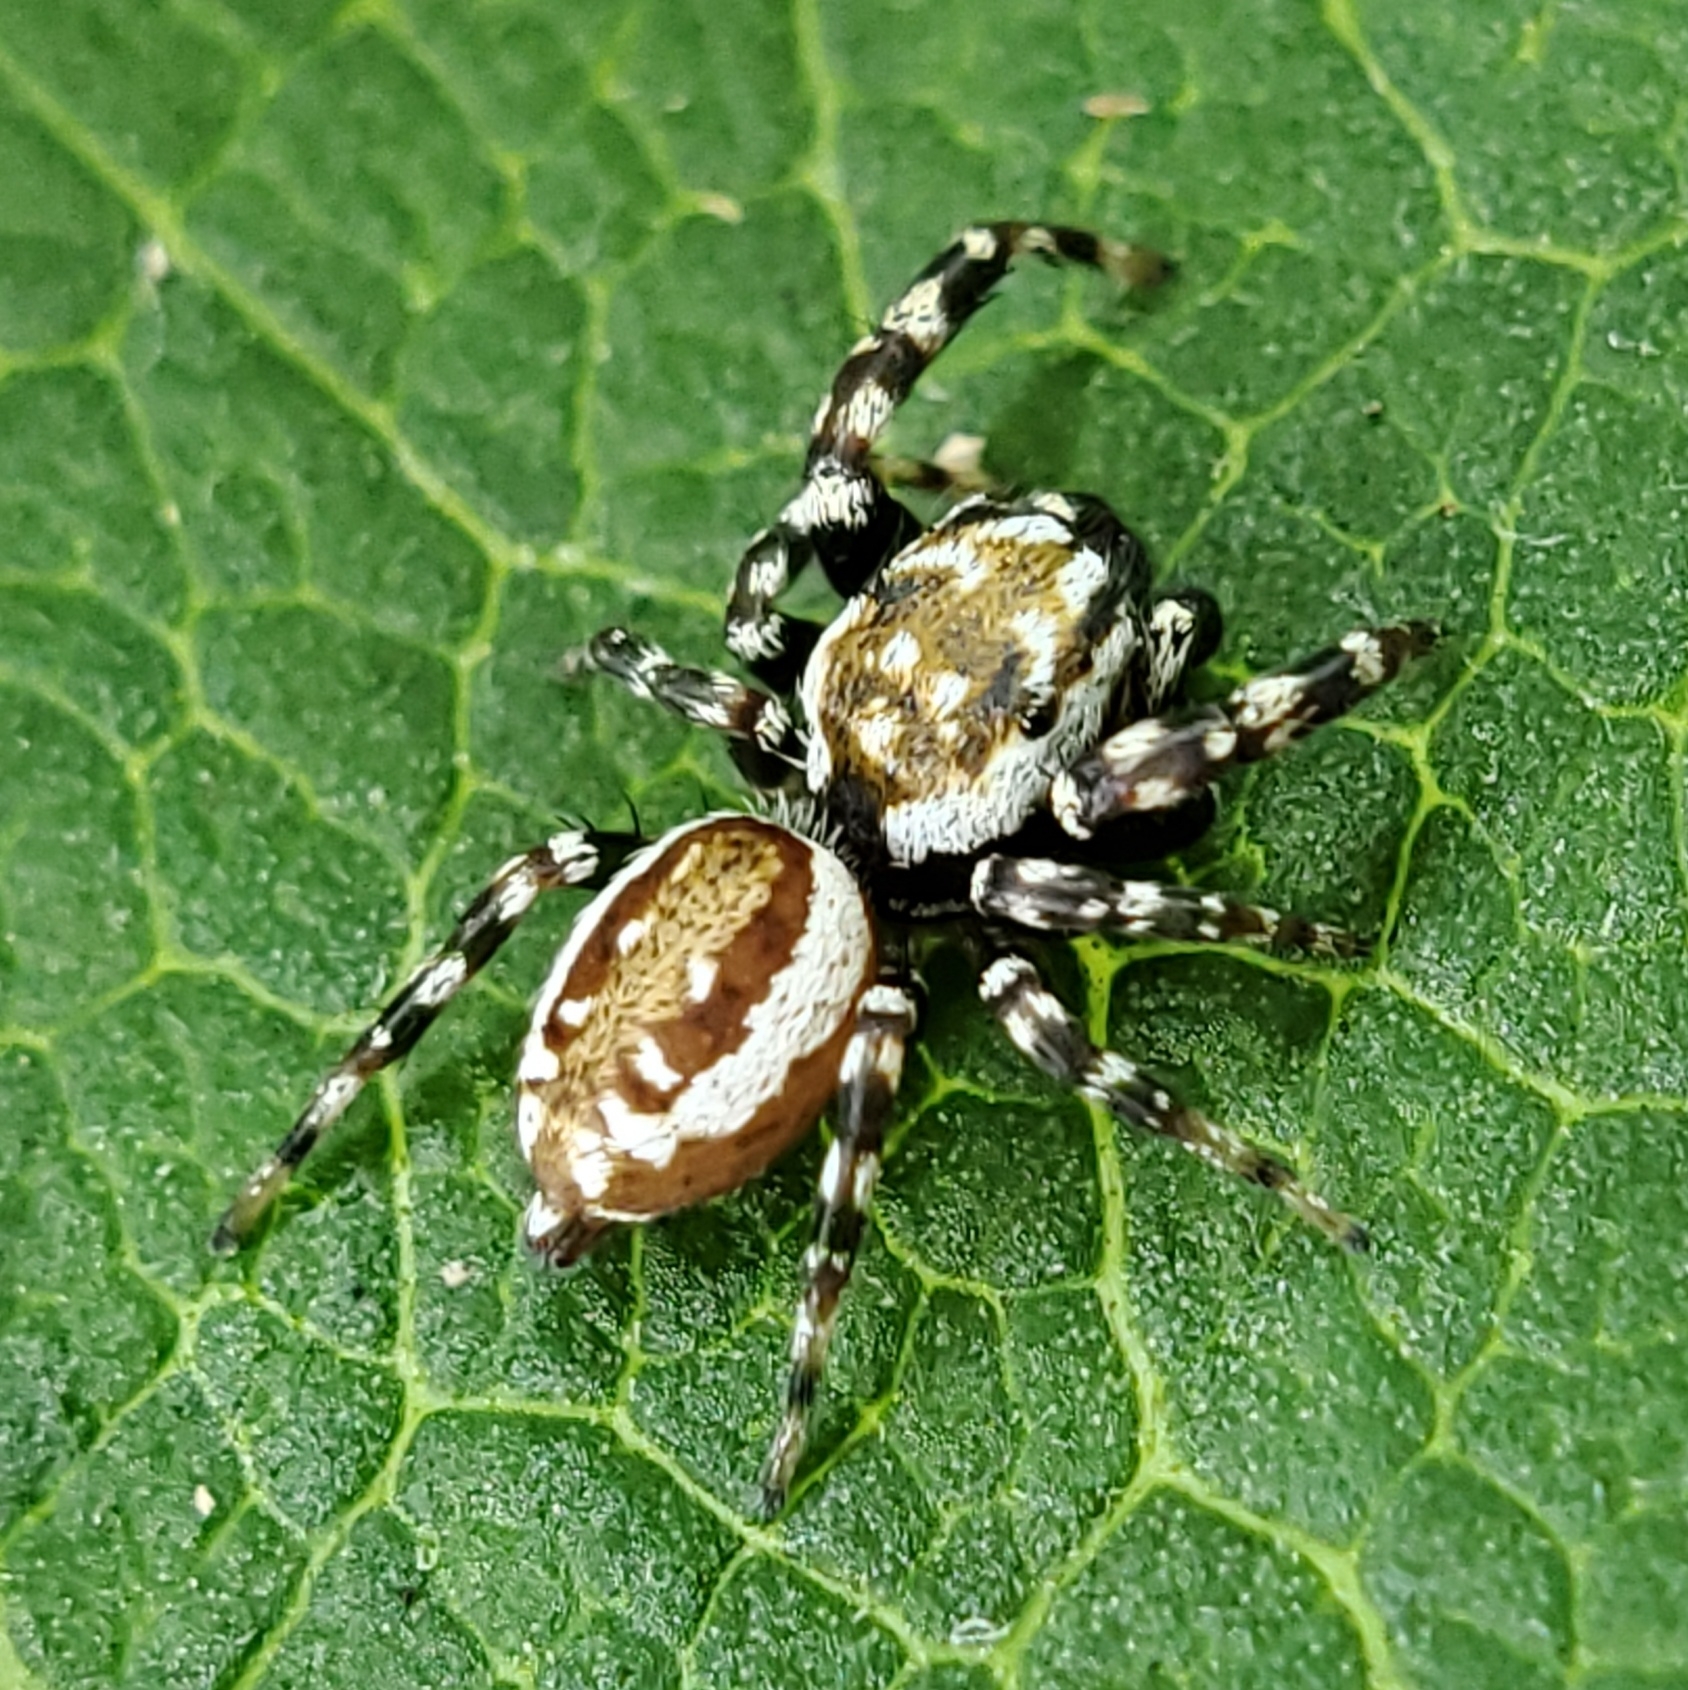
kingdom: Animalia
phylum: Arthropoda
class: Arachnida
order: Araneae
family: Salticidae
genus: Pelegrina
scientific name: Pelegrina galathea
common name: Jumping spiders
